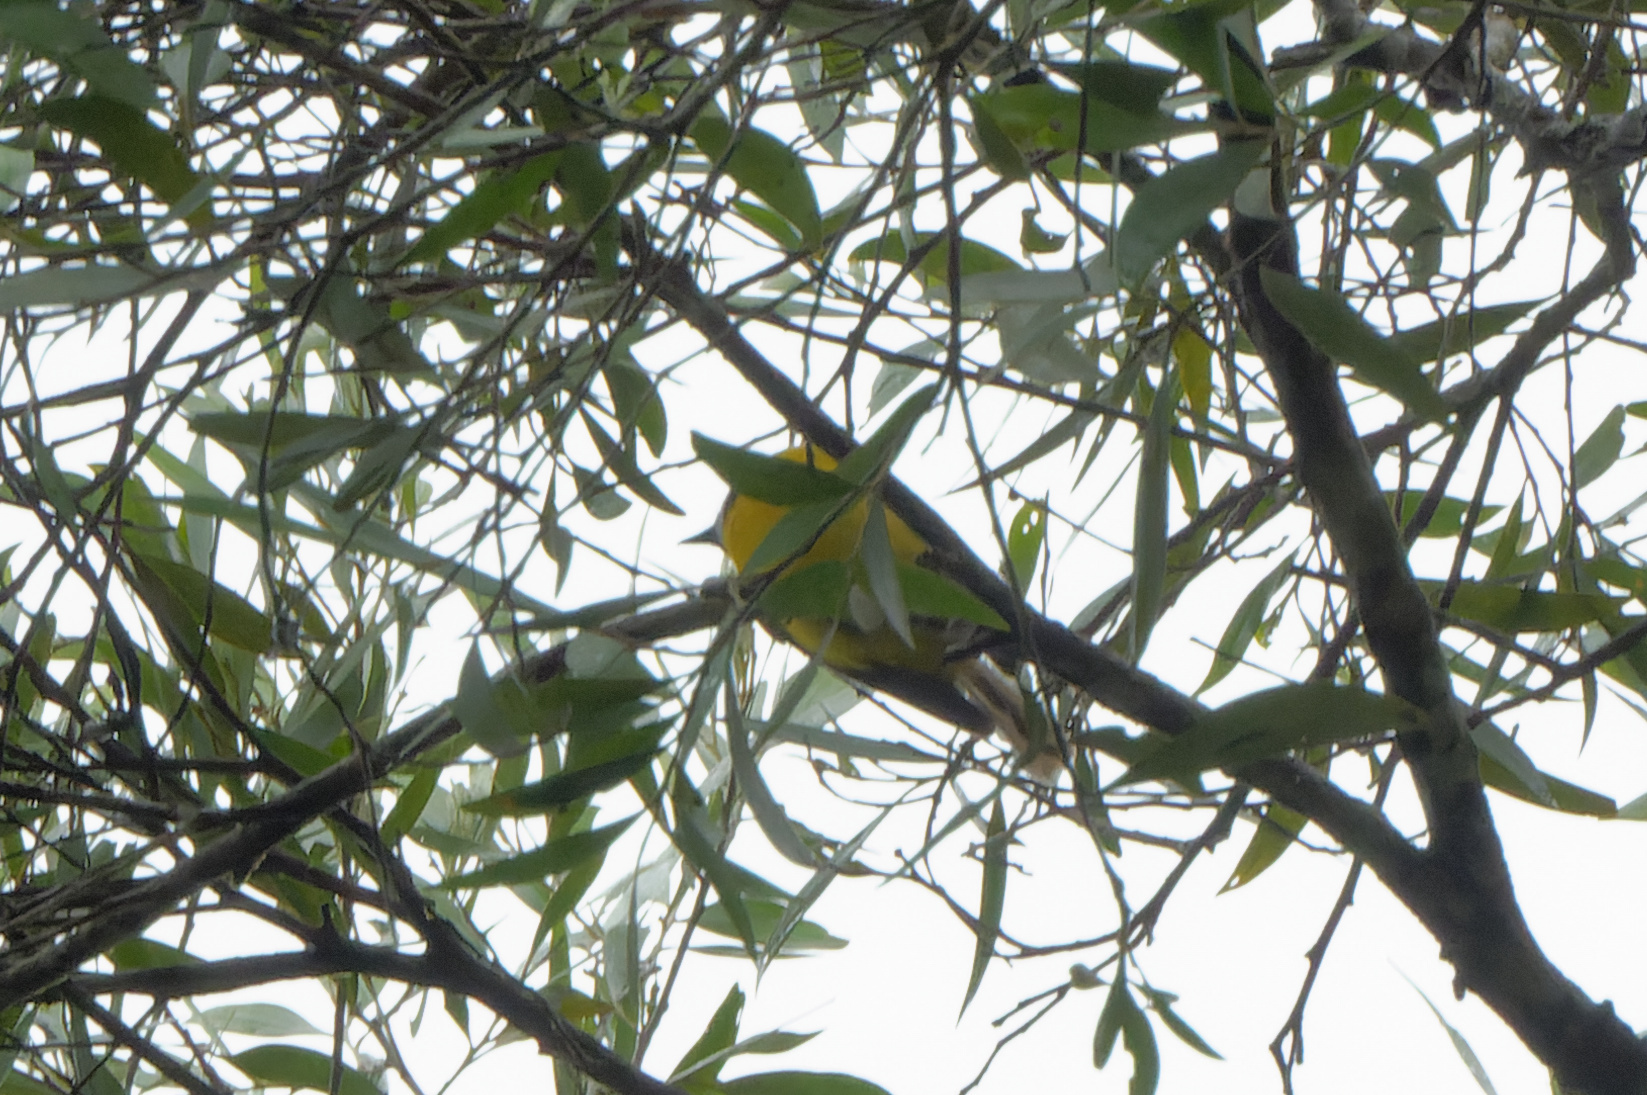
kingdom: Animalia
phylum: Chordata
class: Aves
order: Passeriformes
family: Pachycephalidae
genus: Pachycephala
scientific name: Pachycephala pectoralis
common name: Australian golden whistler
